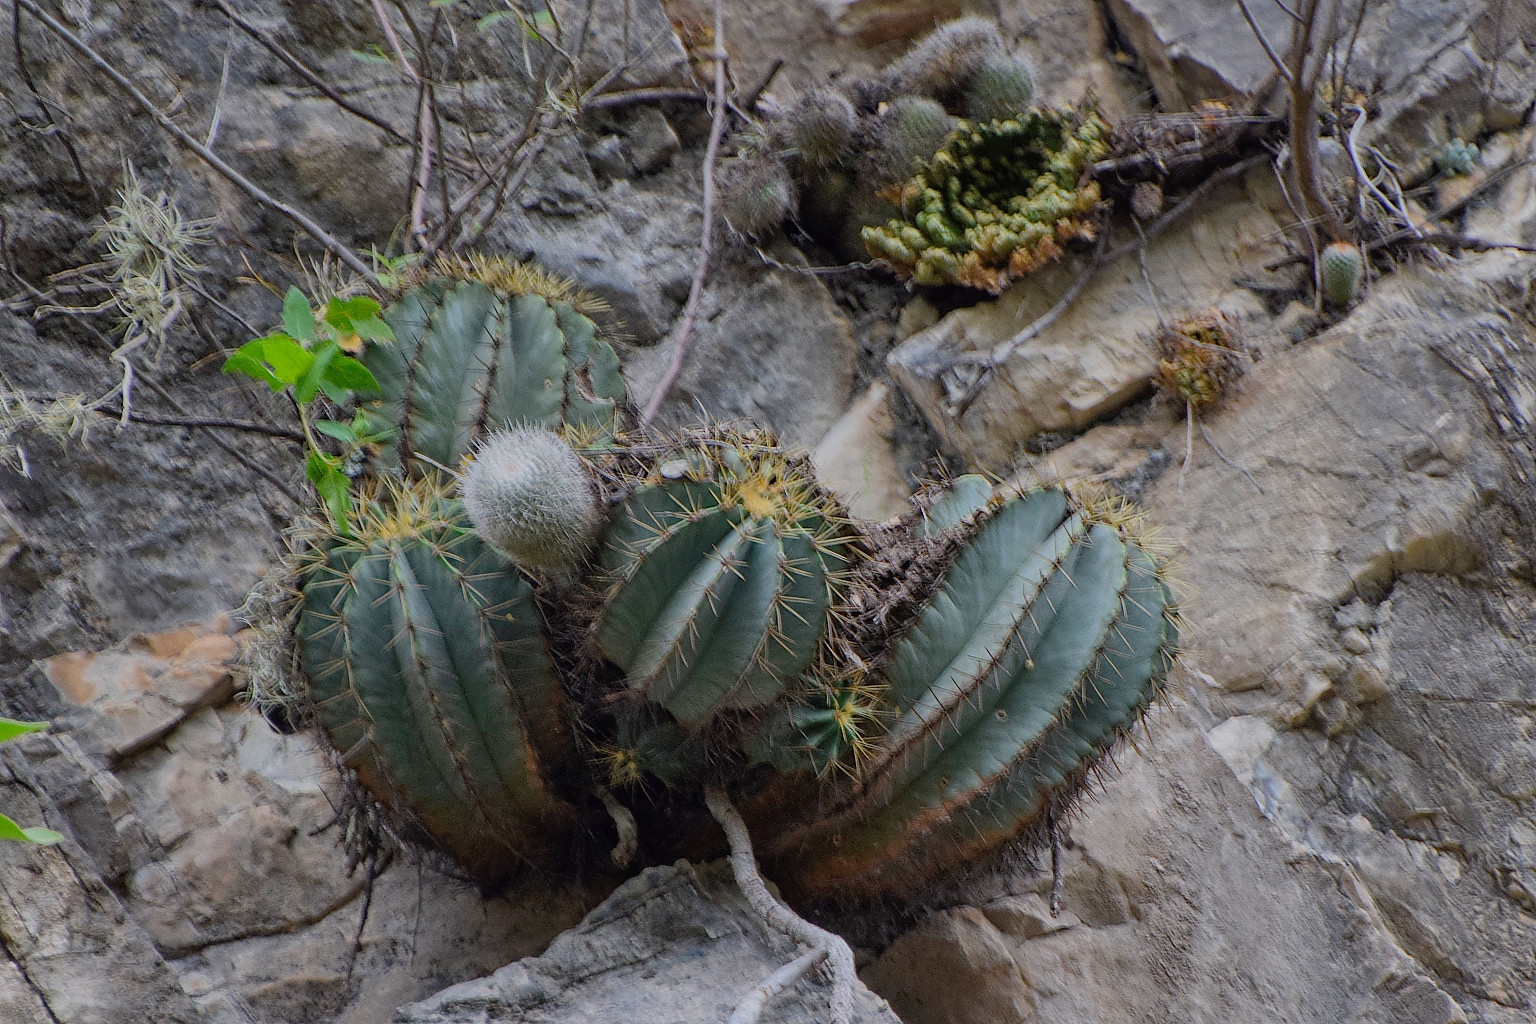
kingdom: Plantae
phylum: Tracheophyta
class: Magnoliopsida
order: Caryophyllales
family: Cactaceae
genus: Bisnaga
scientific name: Bisnaga glaucescens
